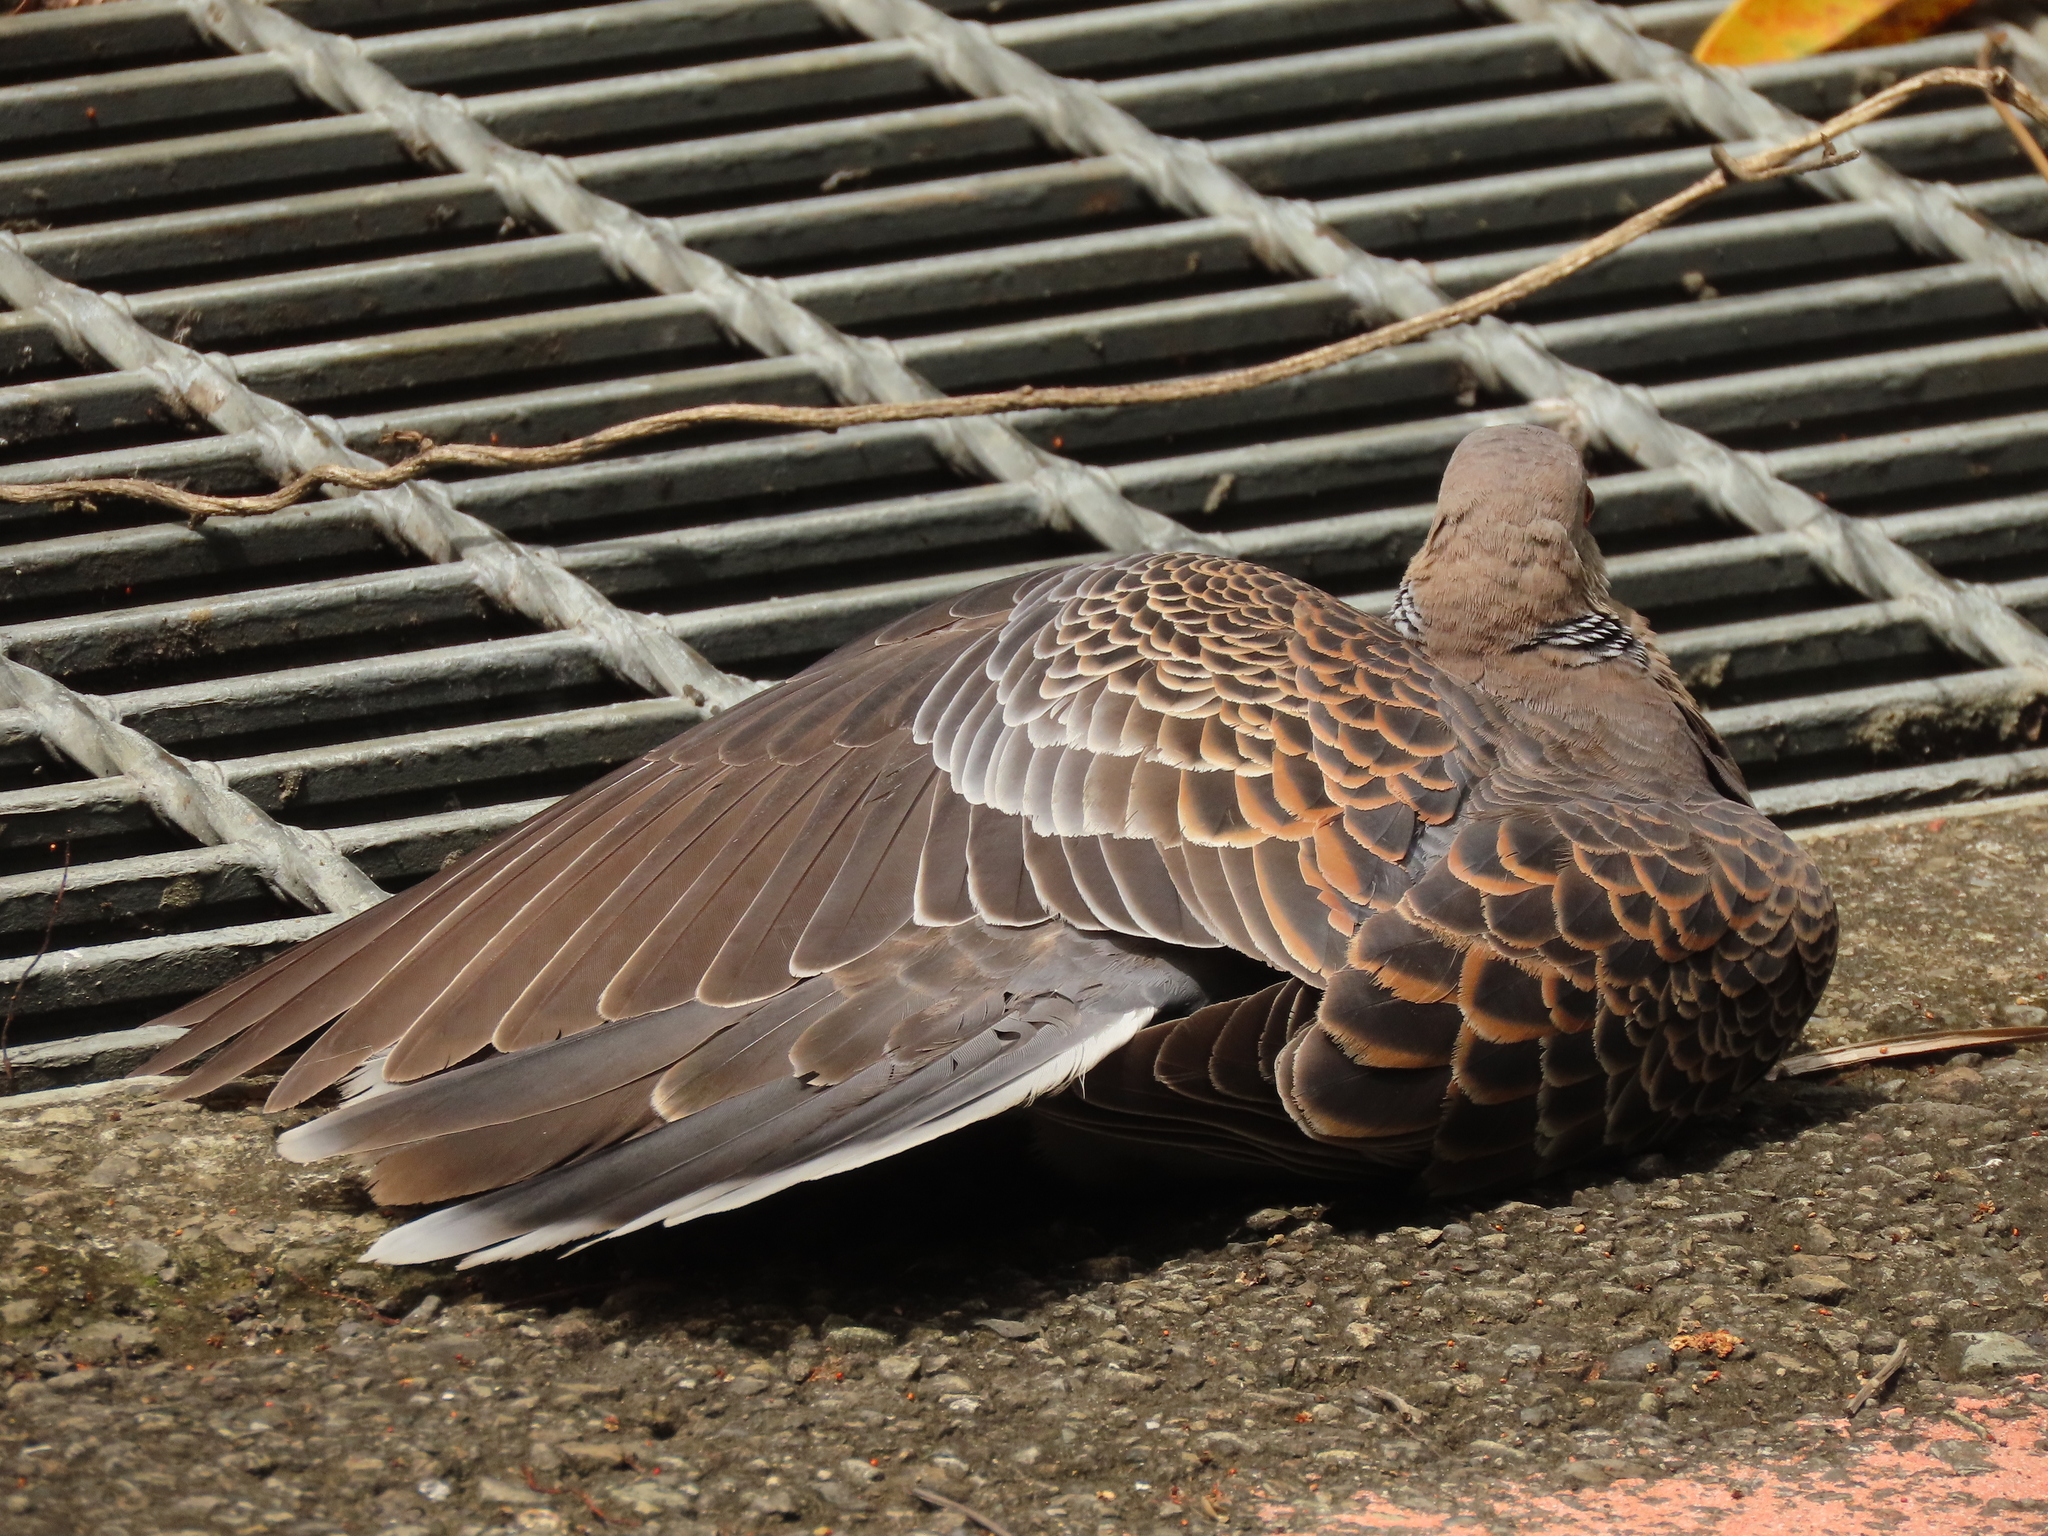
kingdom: Animalia
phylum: Chordata
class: Aves
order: Columbiformes
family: Columbidae
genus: Streptopelia
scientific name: Streptopelia orientalis
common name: Oriental turtle dove
